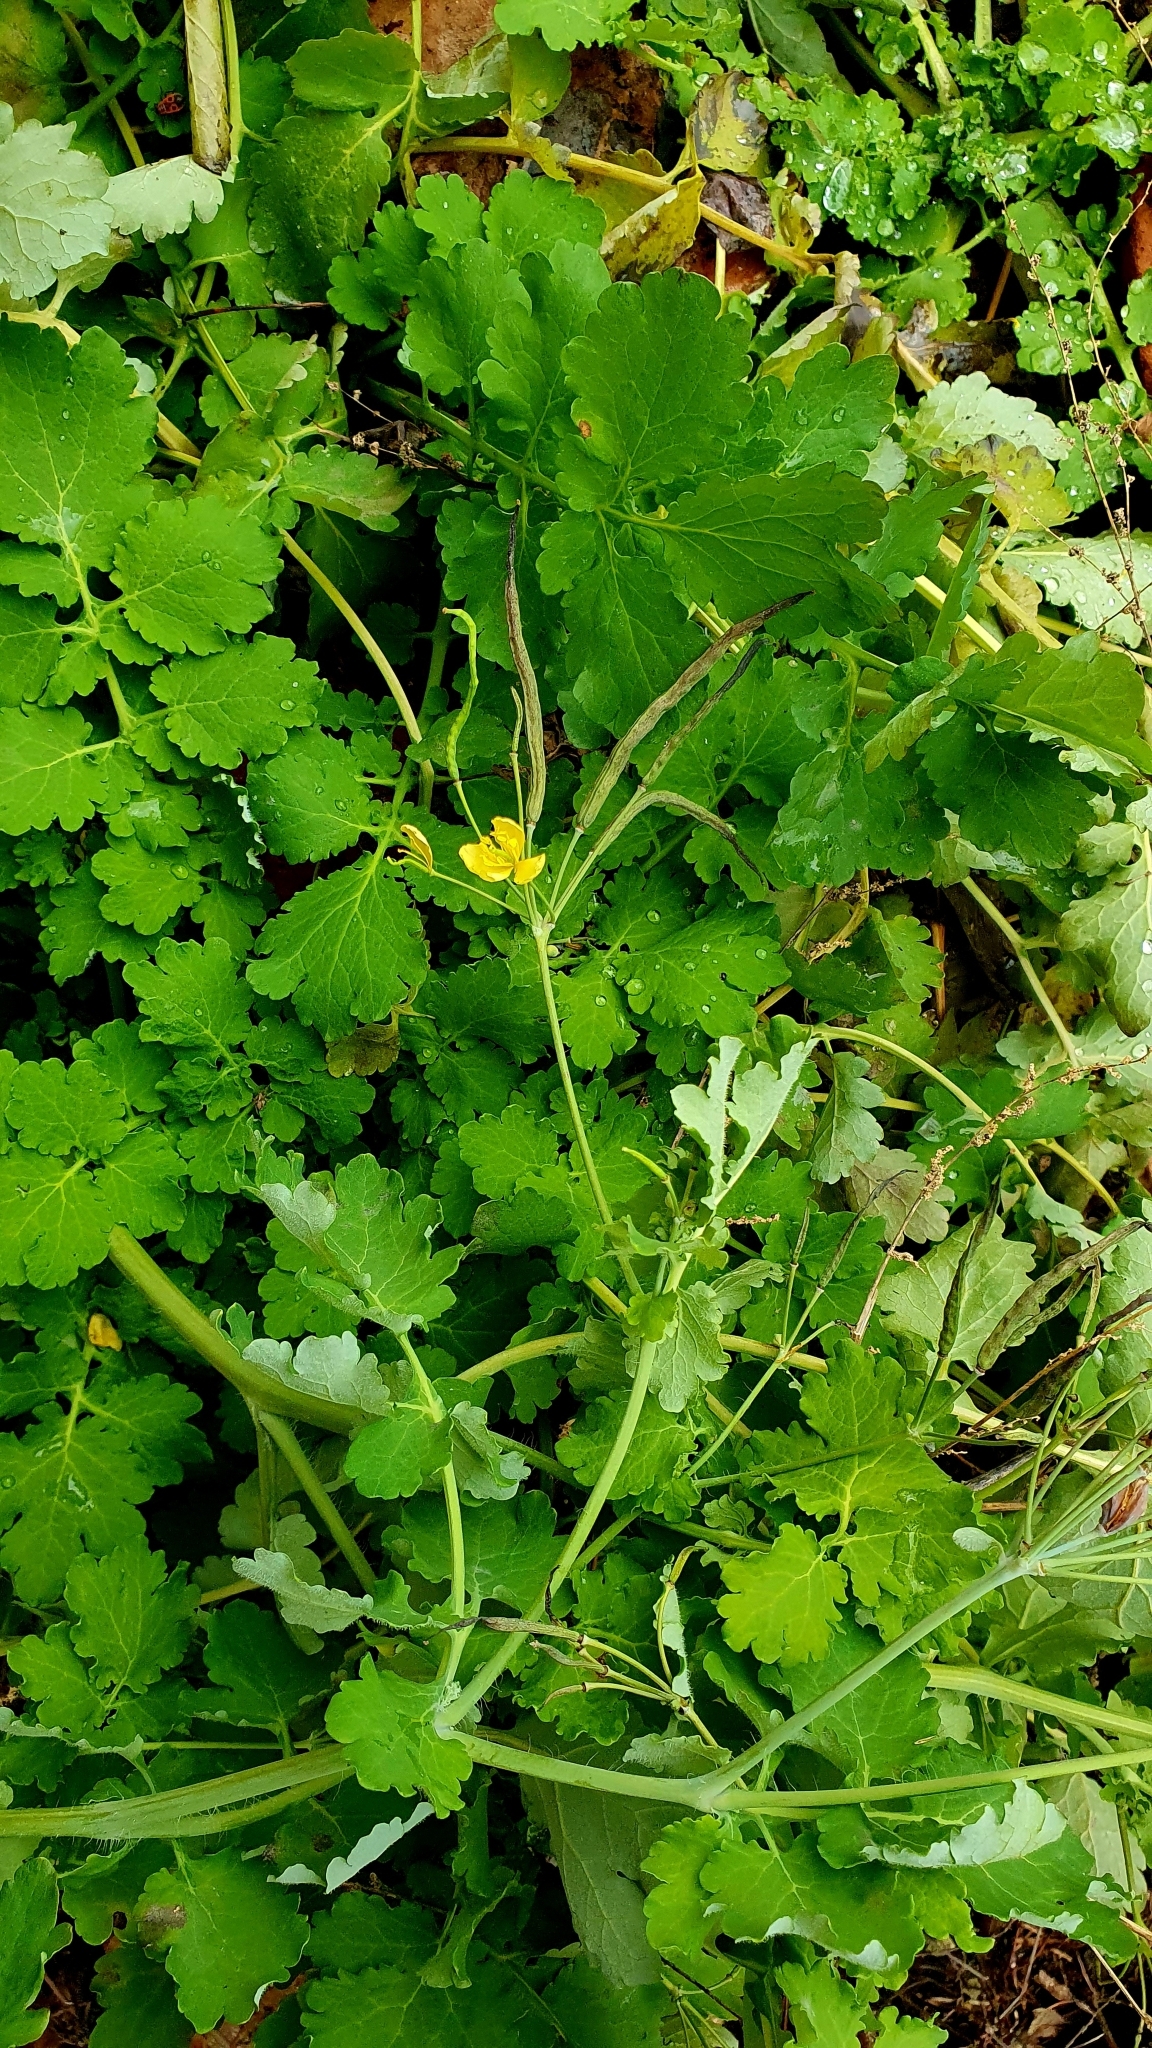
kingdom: Plantae
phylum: Tracheophyta
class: Magnoliopsida
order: Ranunculales
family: Papaveraceae
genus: Chelidonium
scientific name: Chelidonium majus
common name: Greater celandine
